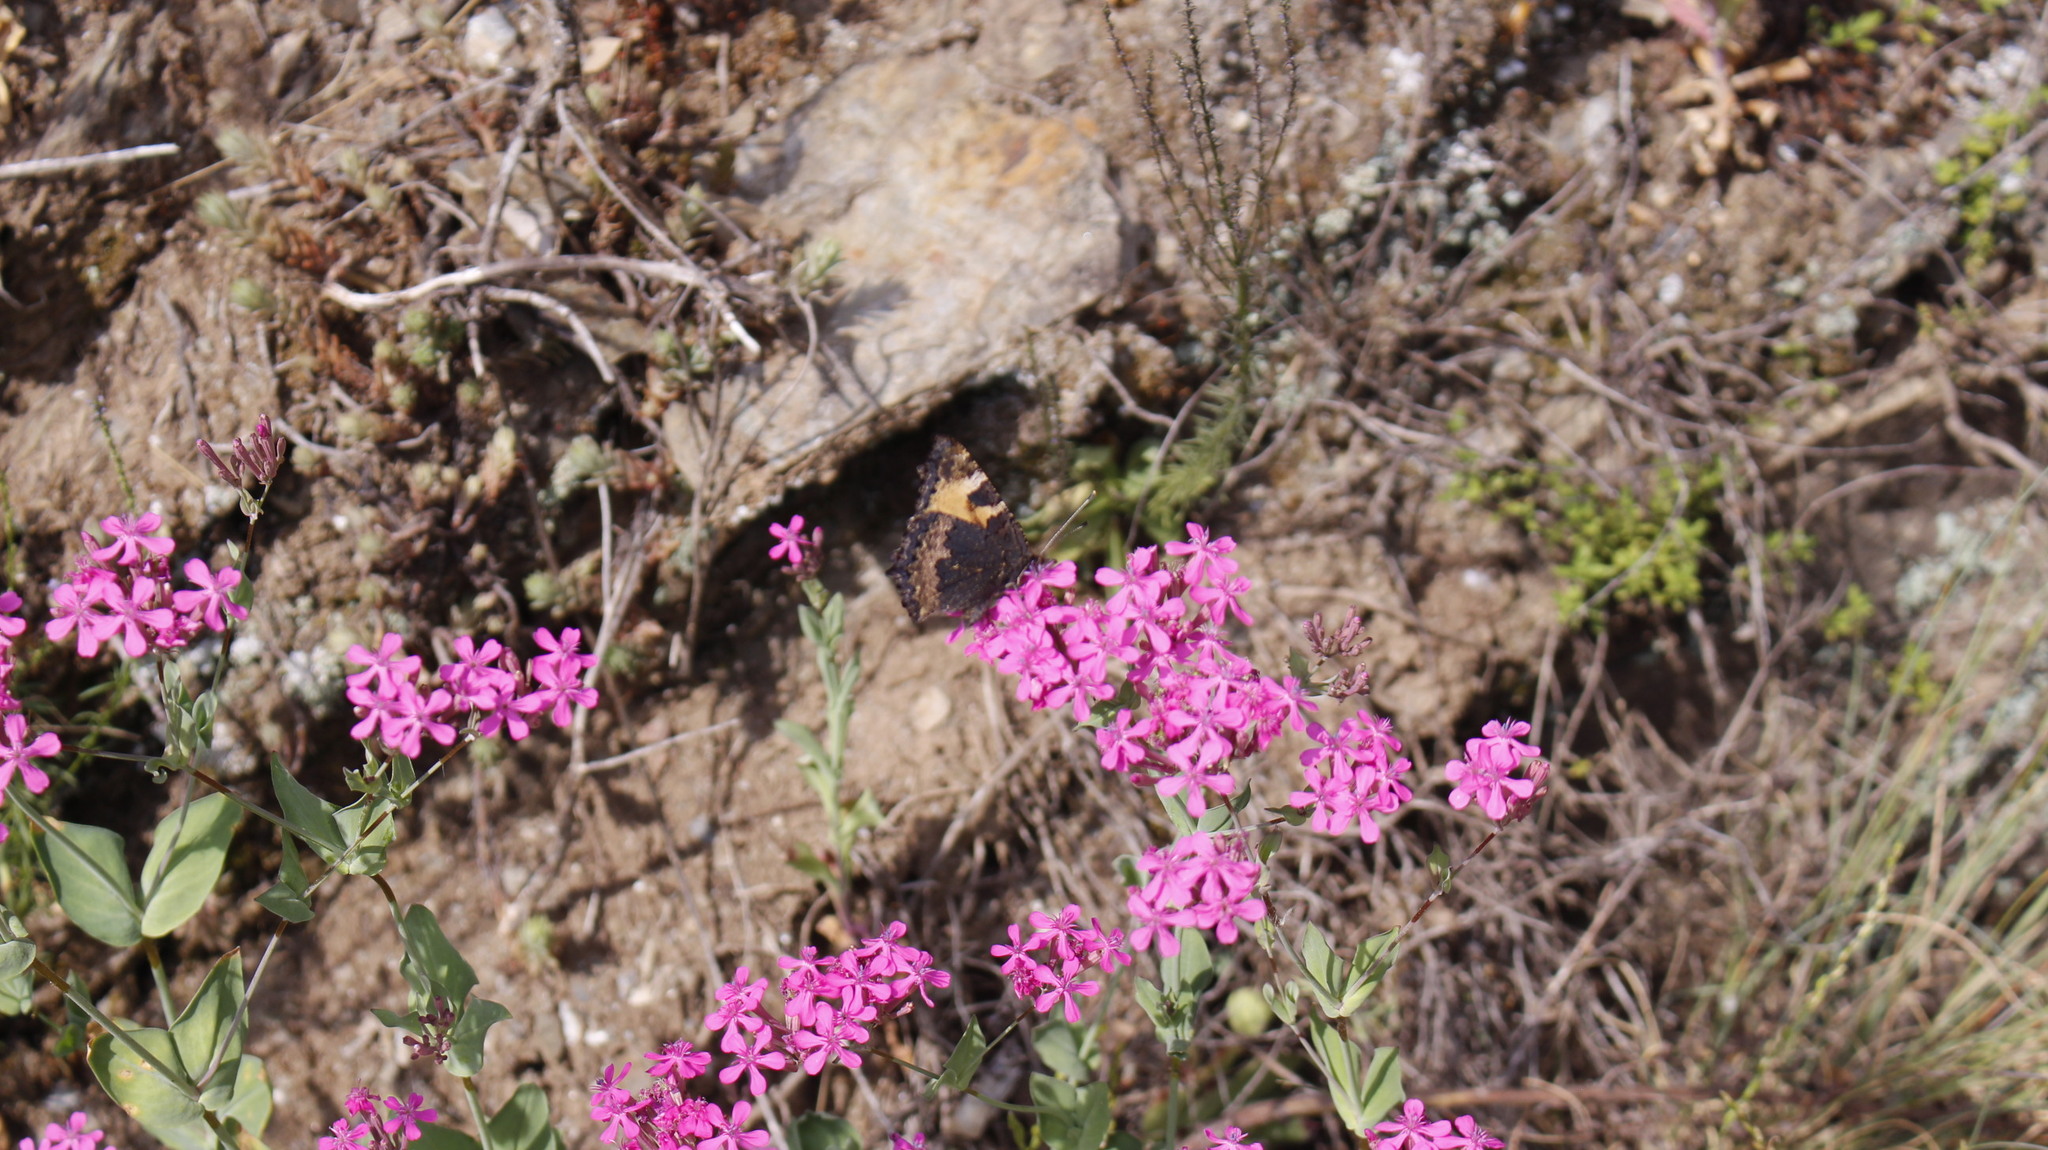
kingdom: Animalia
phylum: Arthropoda
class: Insecta
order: Lepidoptera
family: Nymphalidae
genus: Aglais
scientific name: Aglais urticae
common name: Small tortoiseshell
